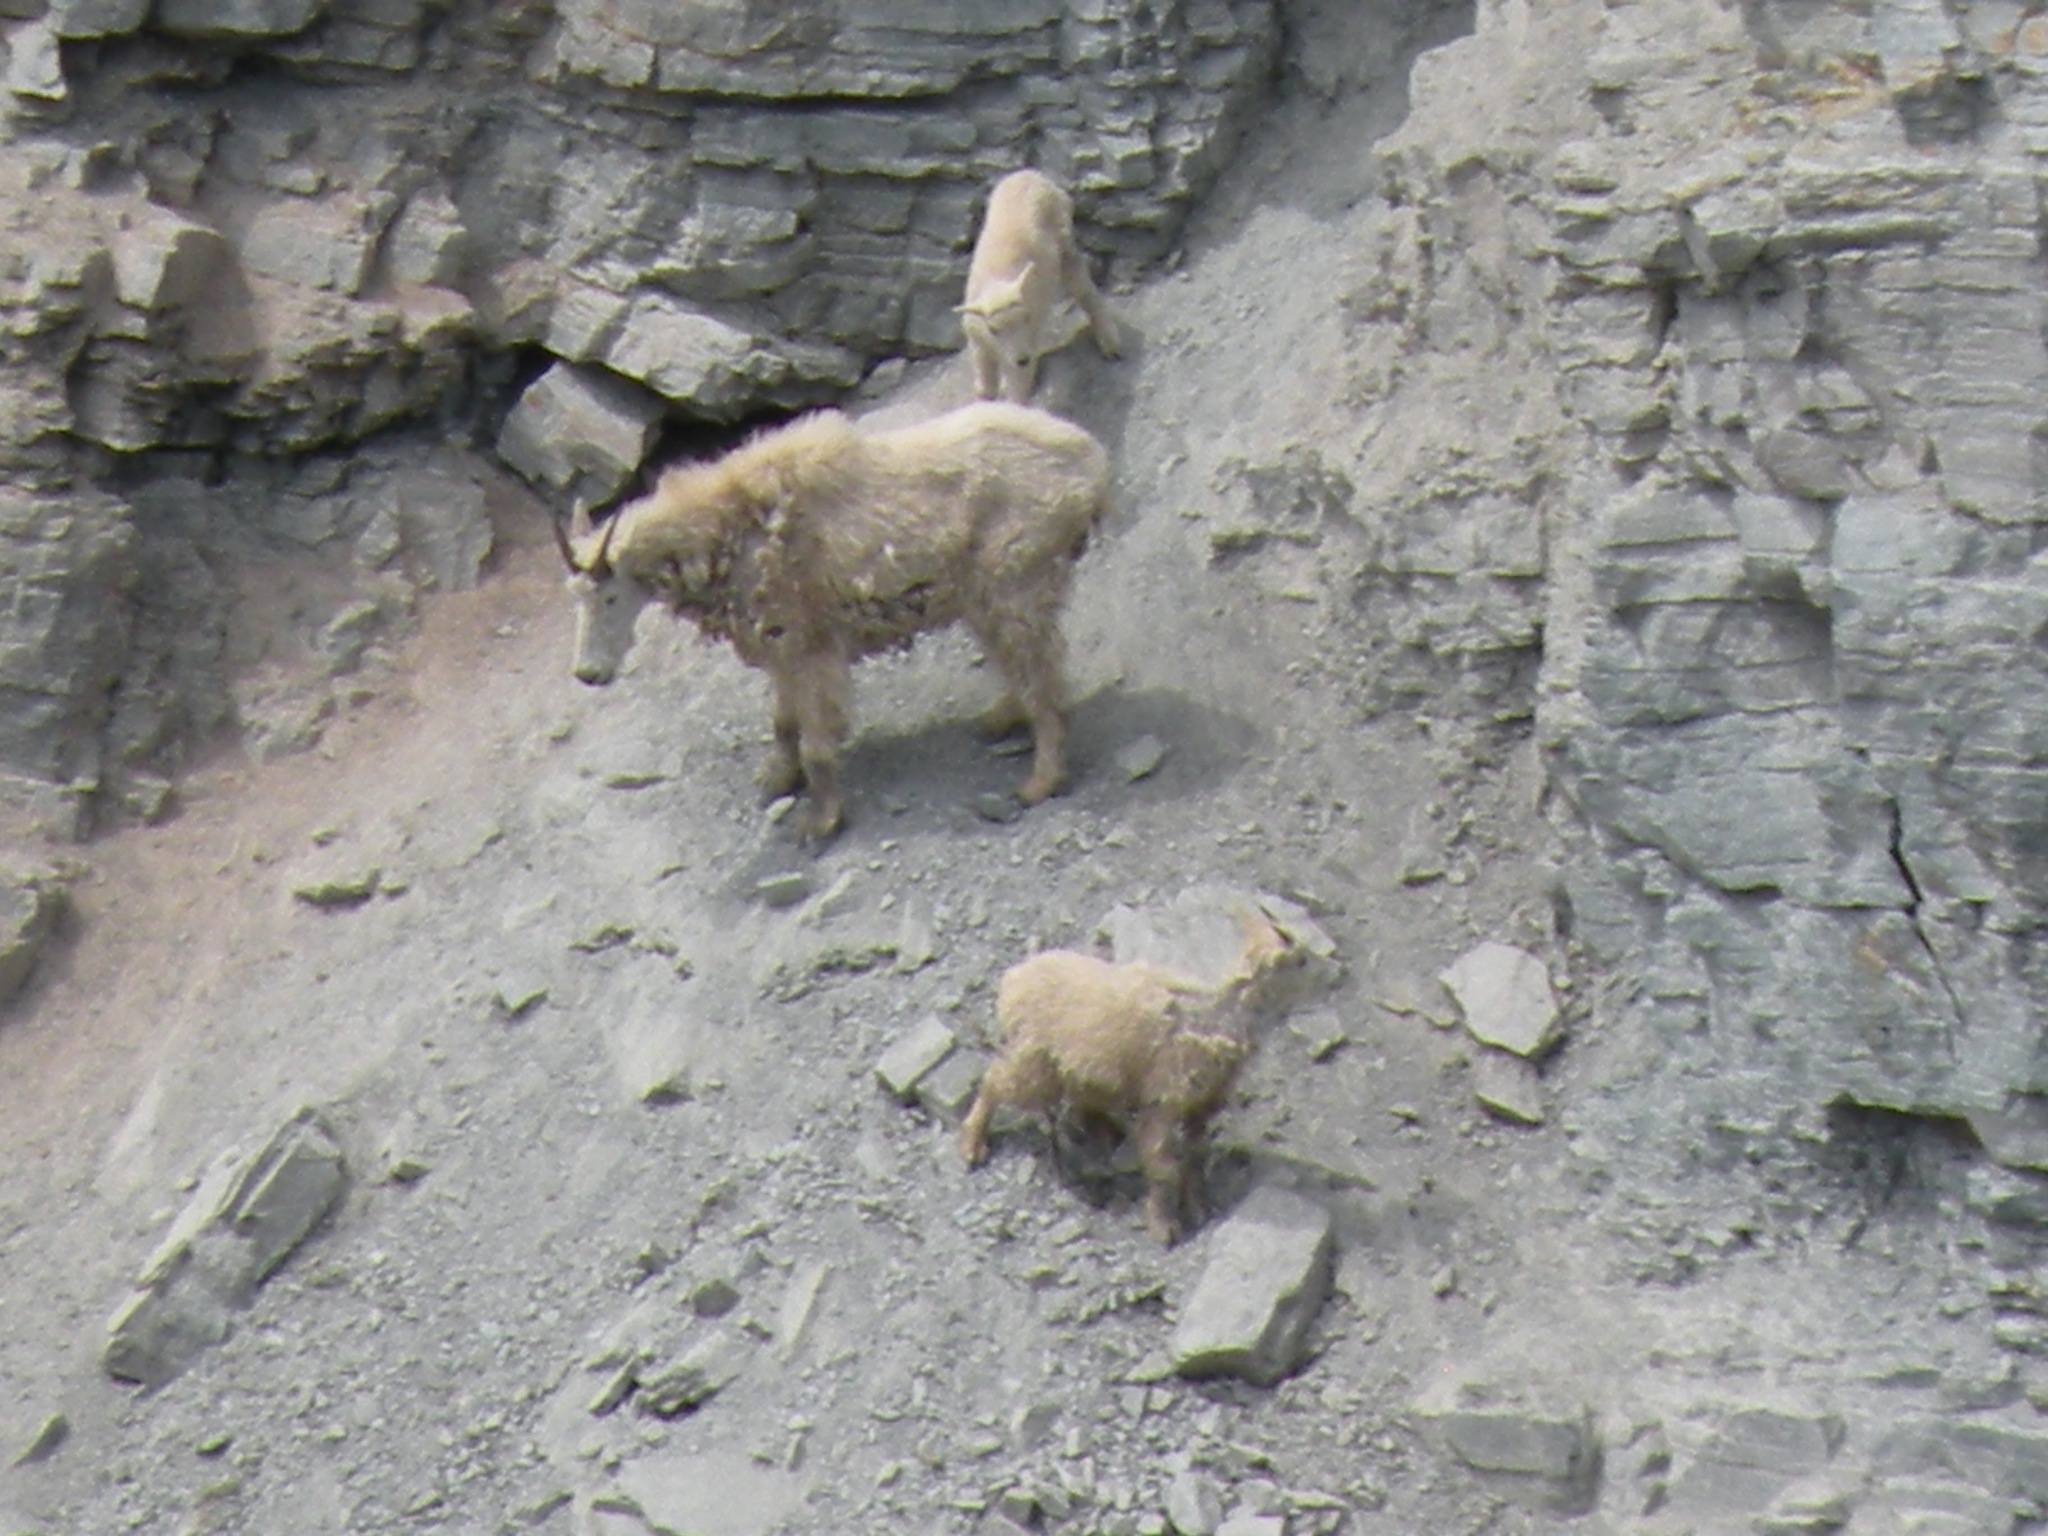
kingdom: Animalia
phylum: Chordata
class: Mammalia
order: Artiodactyla
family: Bovidae
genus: Oreamnos
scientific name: Oreamnos americanus
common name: Mountain goat
